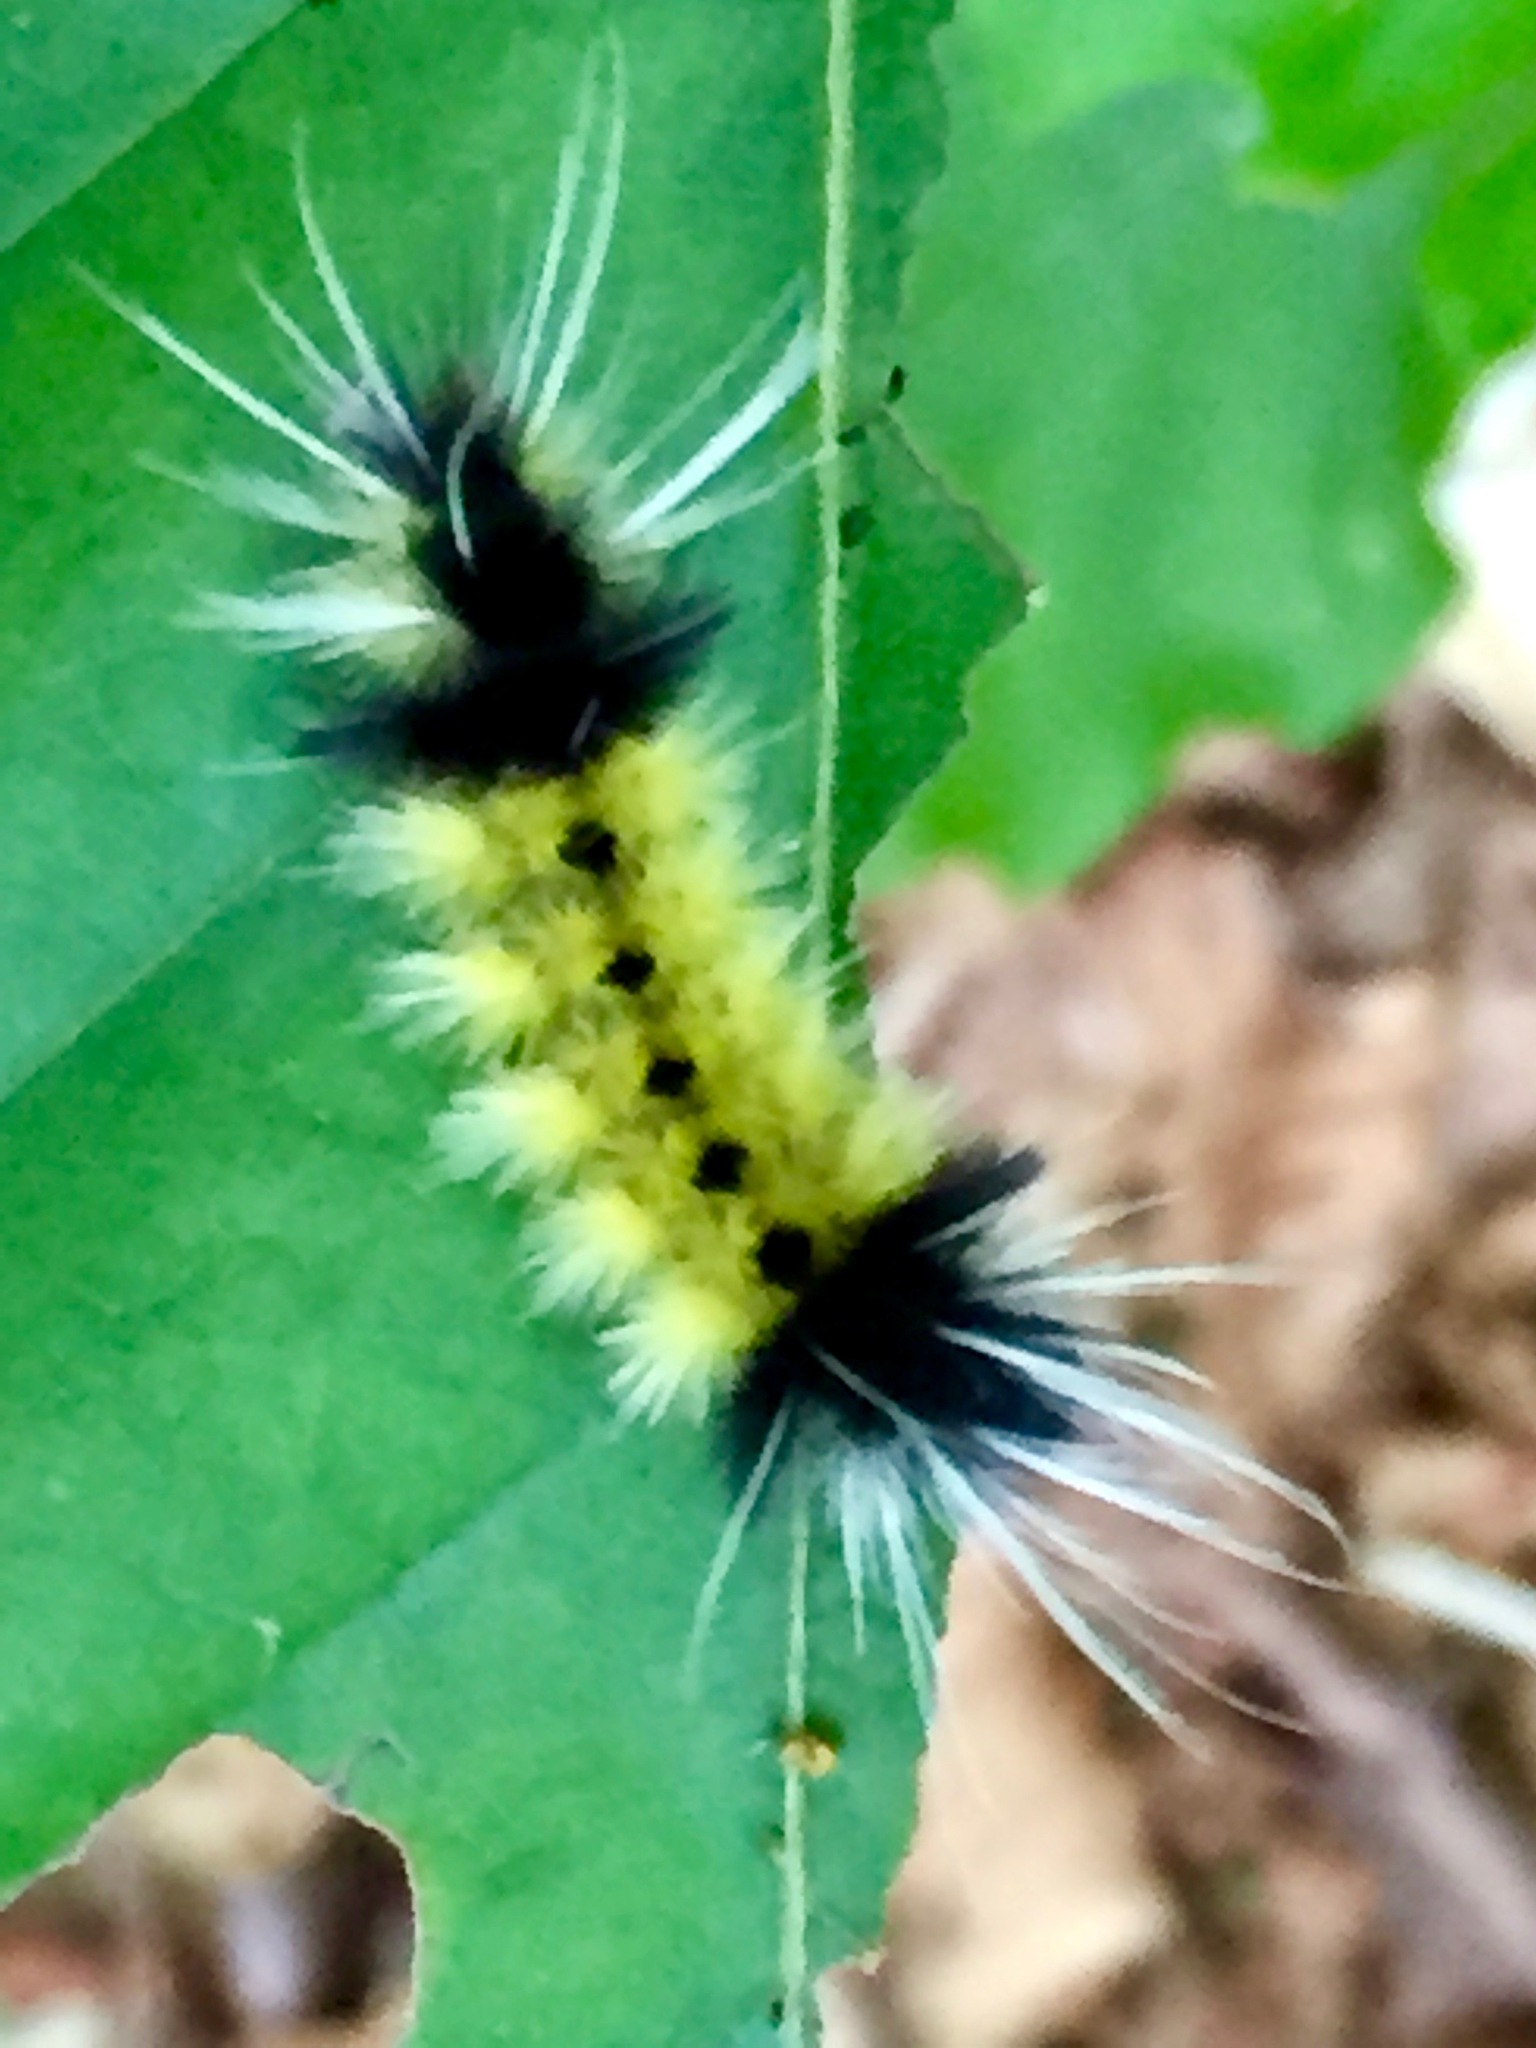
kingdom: Animalia
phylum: Arthropoda
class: Insecta
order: Lepidoptera
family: Erebidae
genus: Lophocampa
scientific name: Lophocampa maculata
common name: Spotted tussock moth
